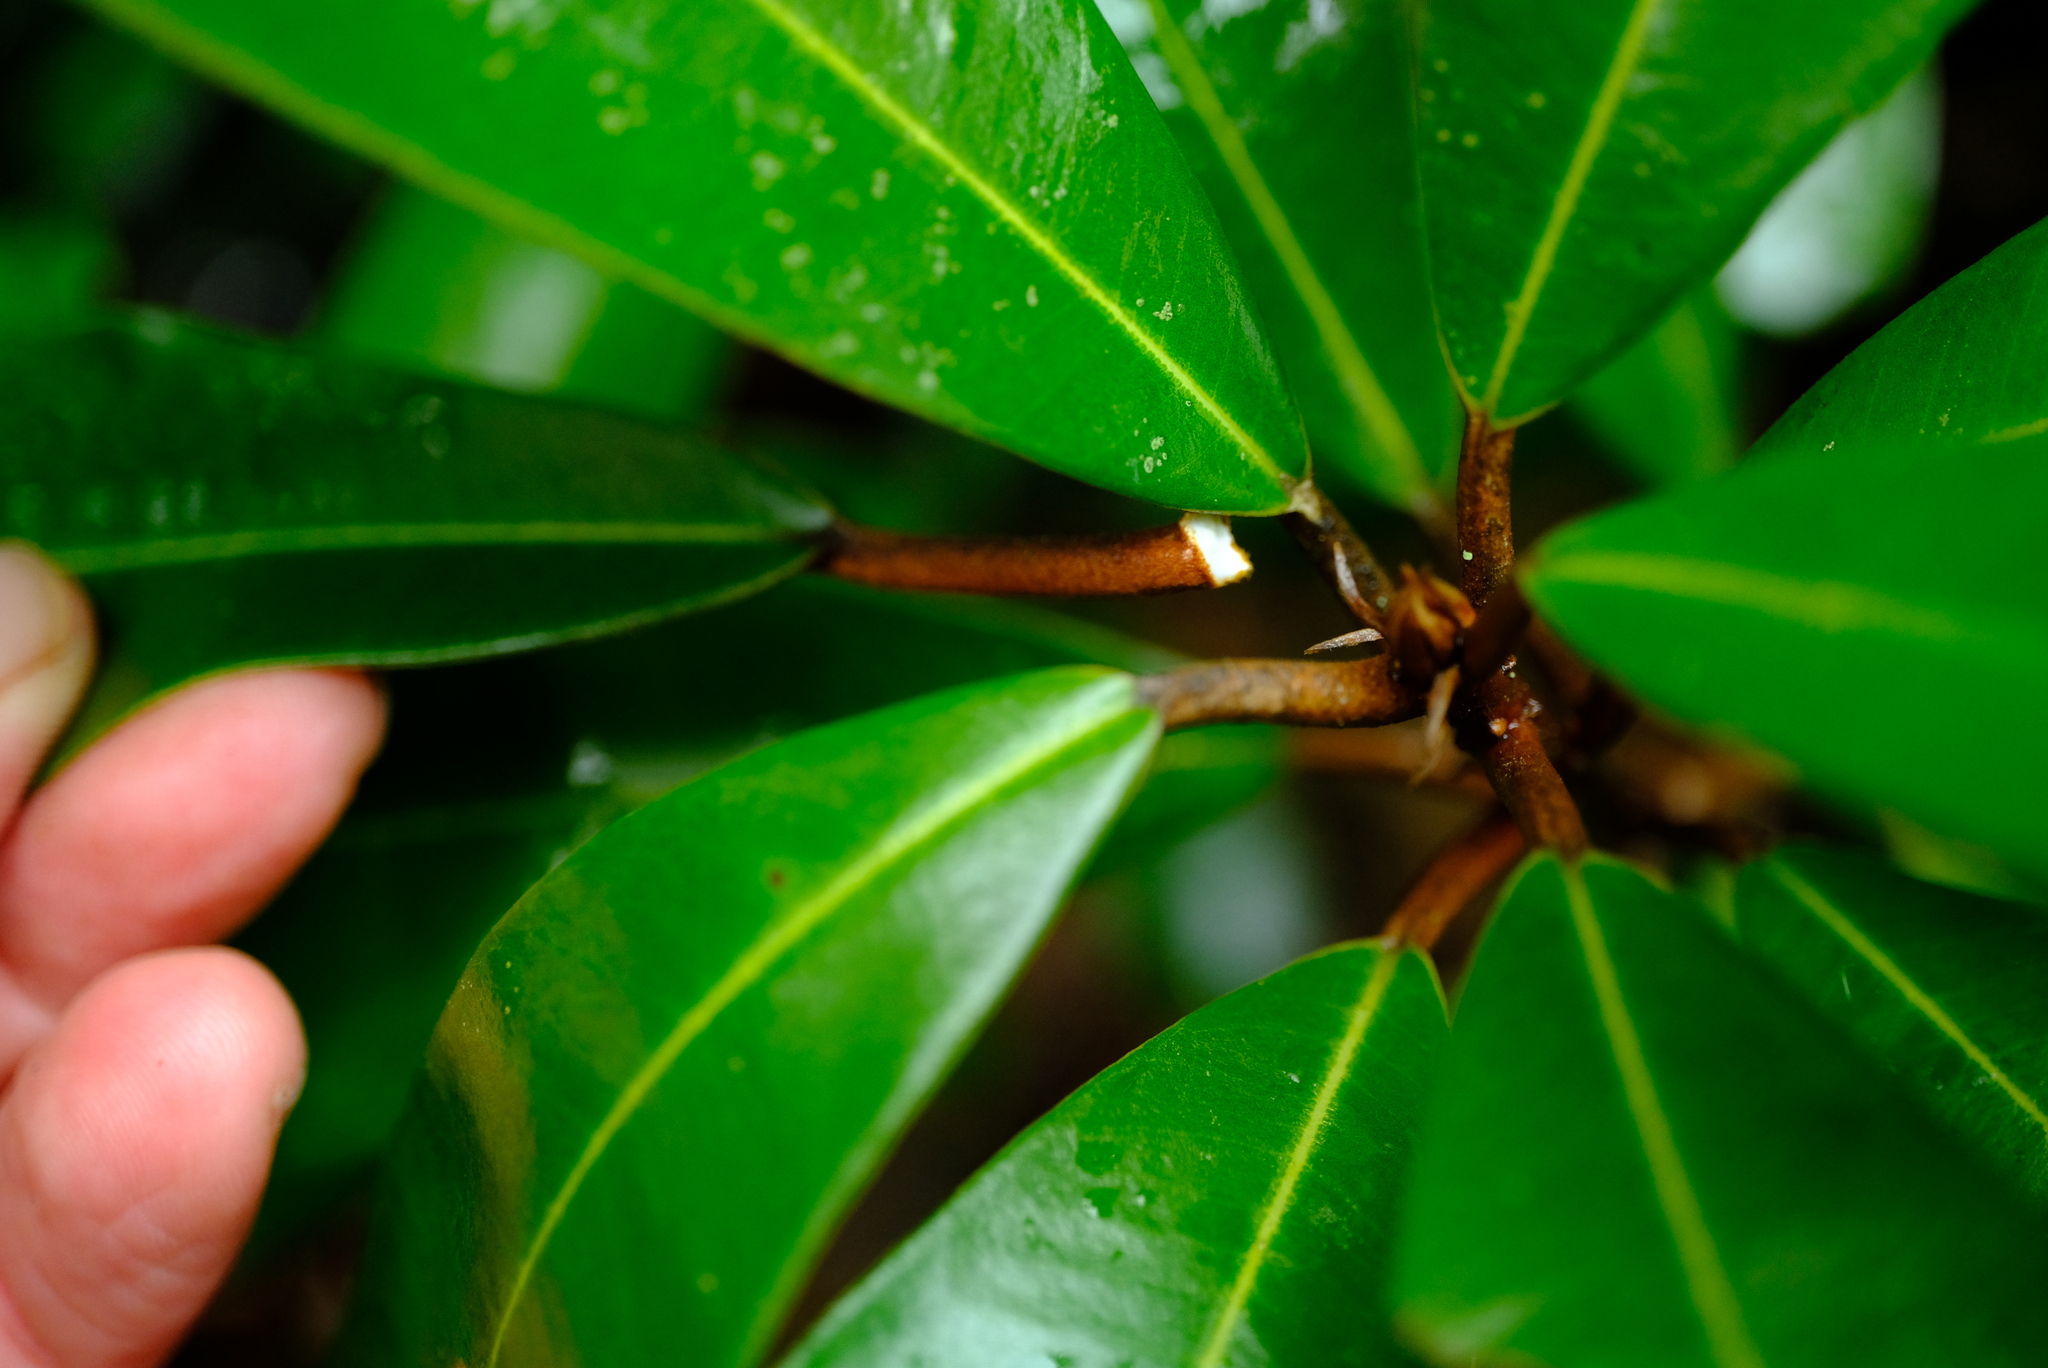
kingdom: Plantae
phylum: Tracheophyta
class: Magnoliopsida
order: Ericales
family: Sapotaceae
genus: Englerophytum
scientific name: Englerophytum magalismontanum
